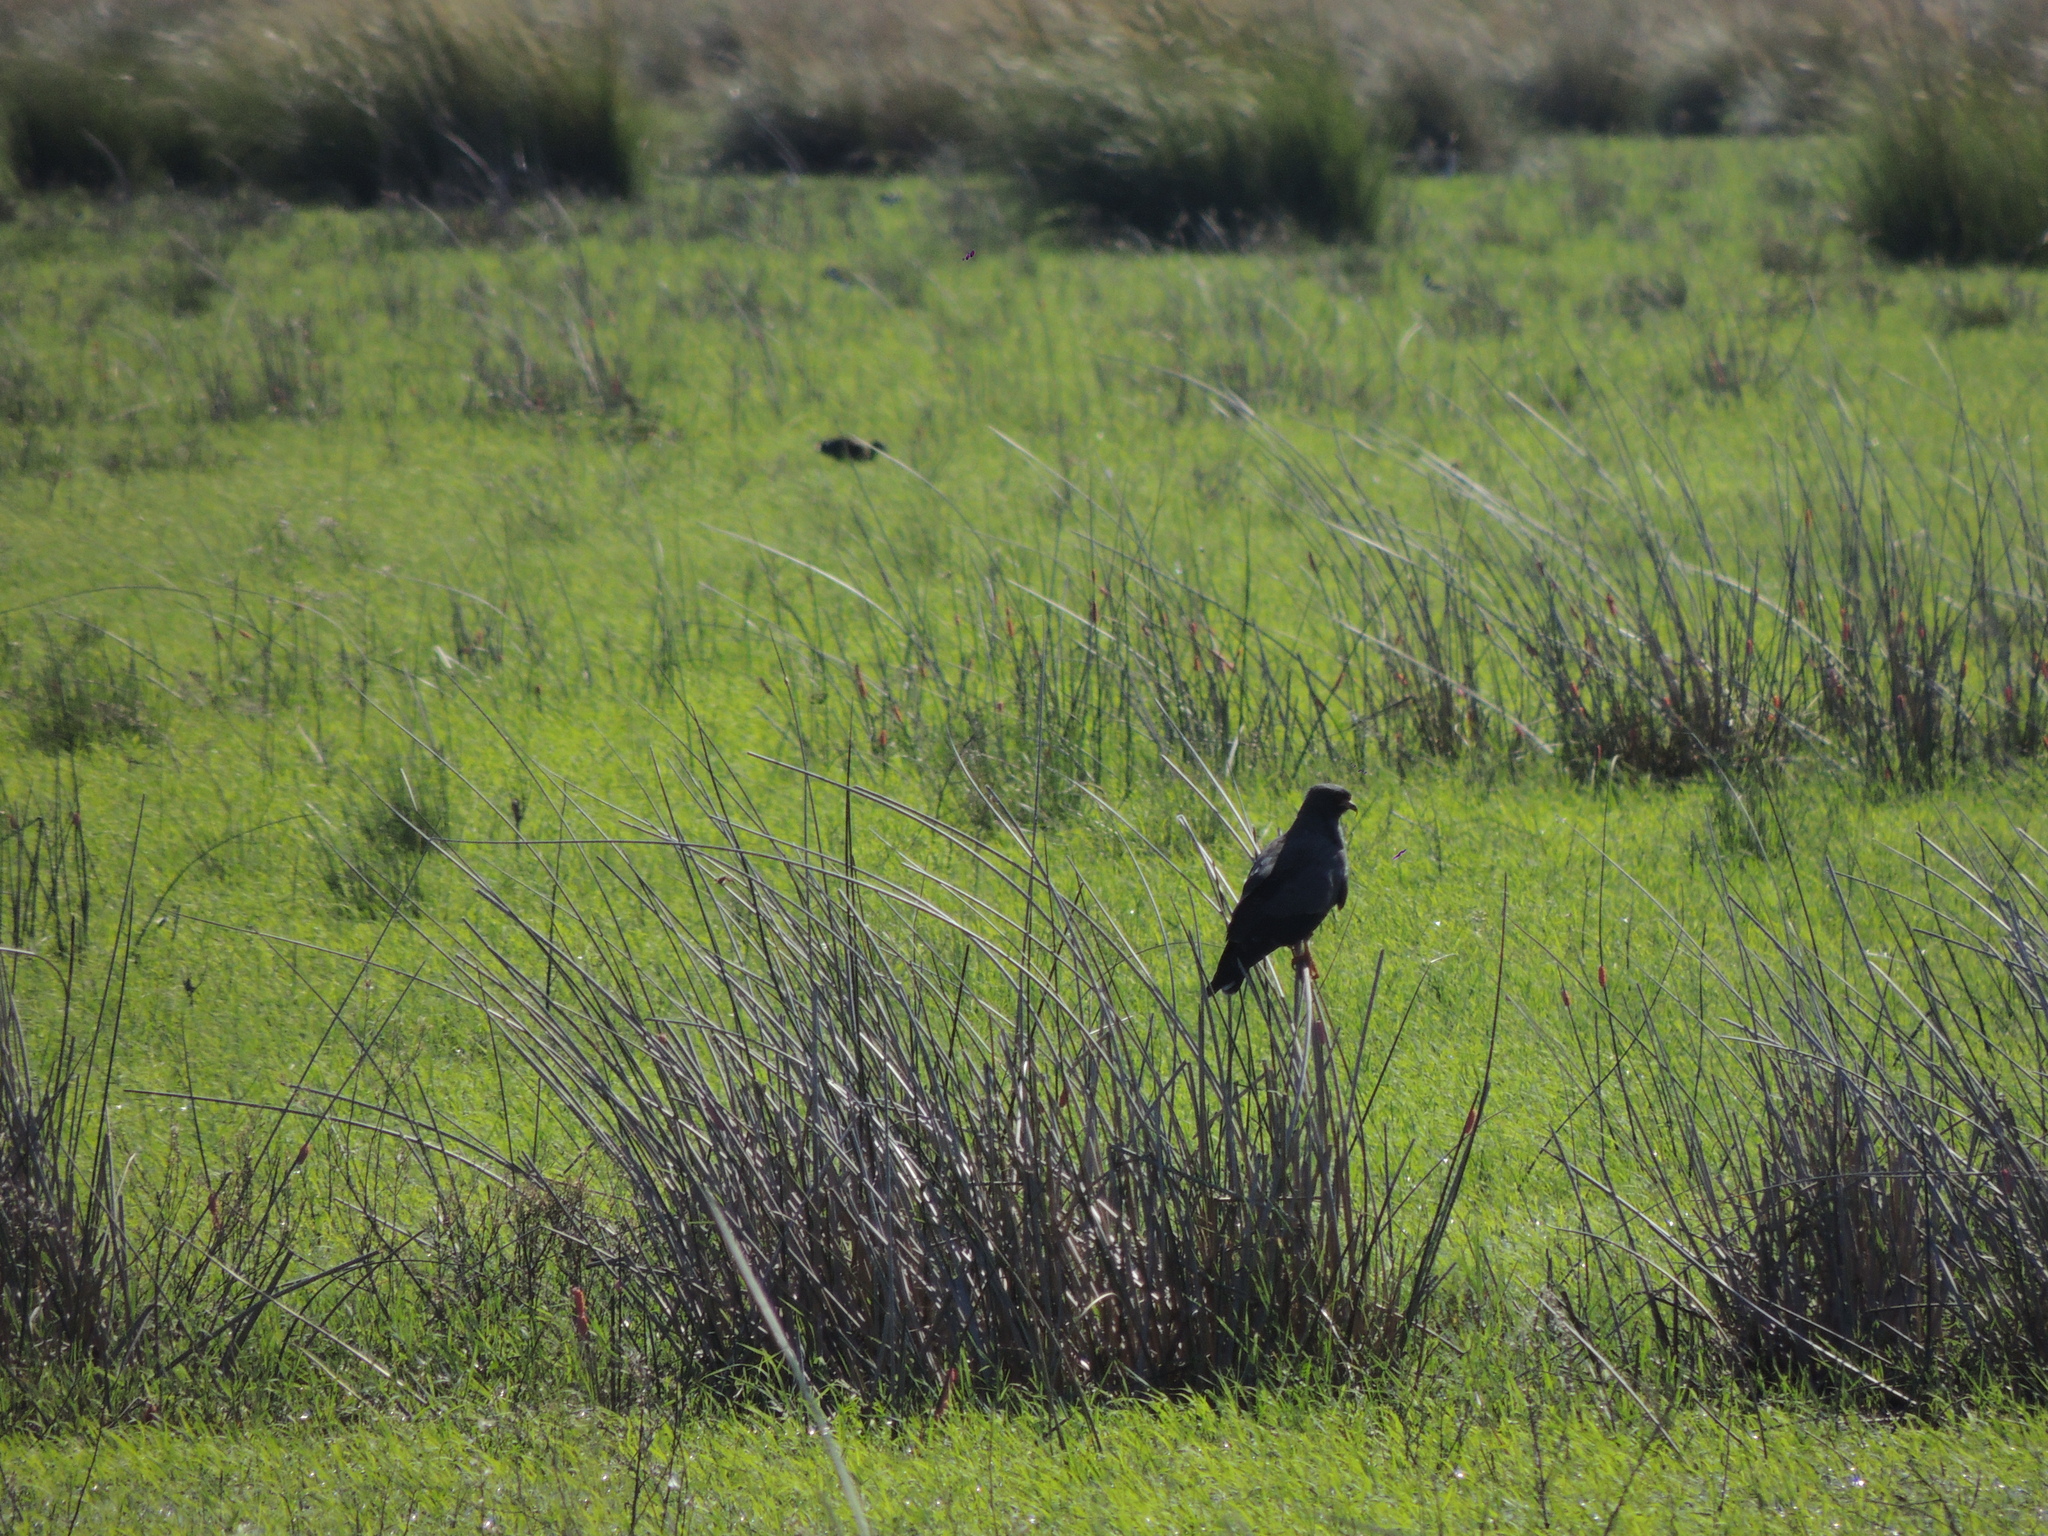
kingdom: Animalia
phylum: Chordata
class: Aves
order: Accipitriformes
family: Accipitridae
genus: Rostrhamus
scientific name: Rostrhamus sociabilis
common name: Snail kite
